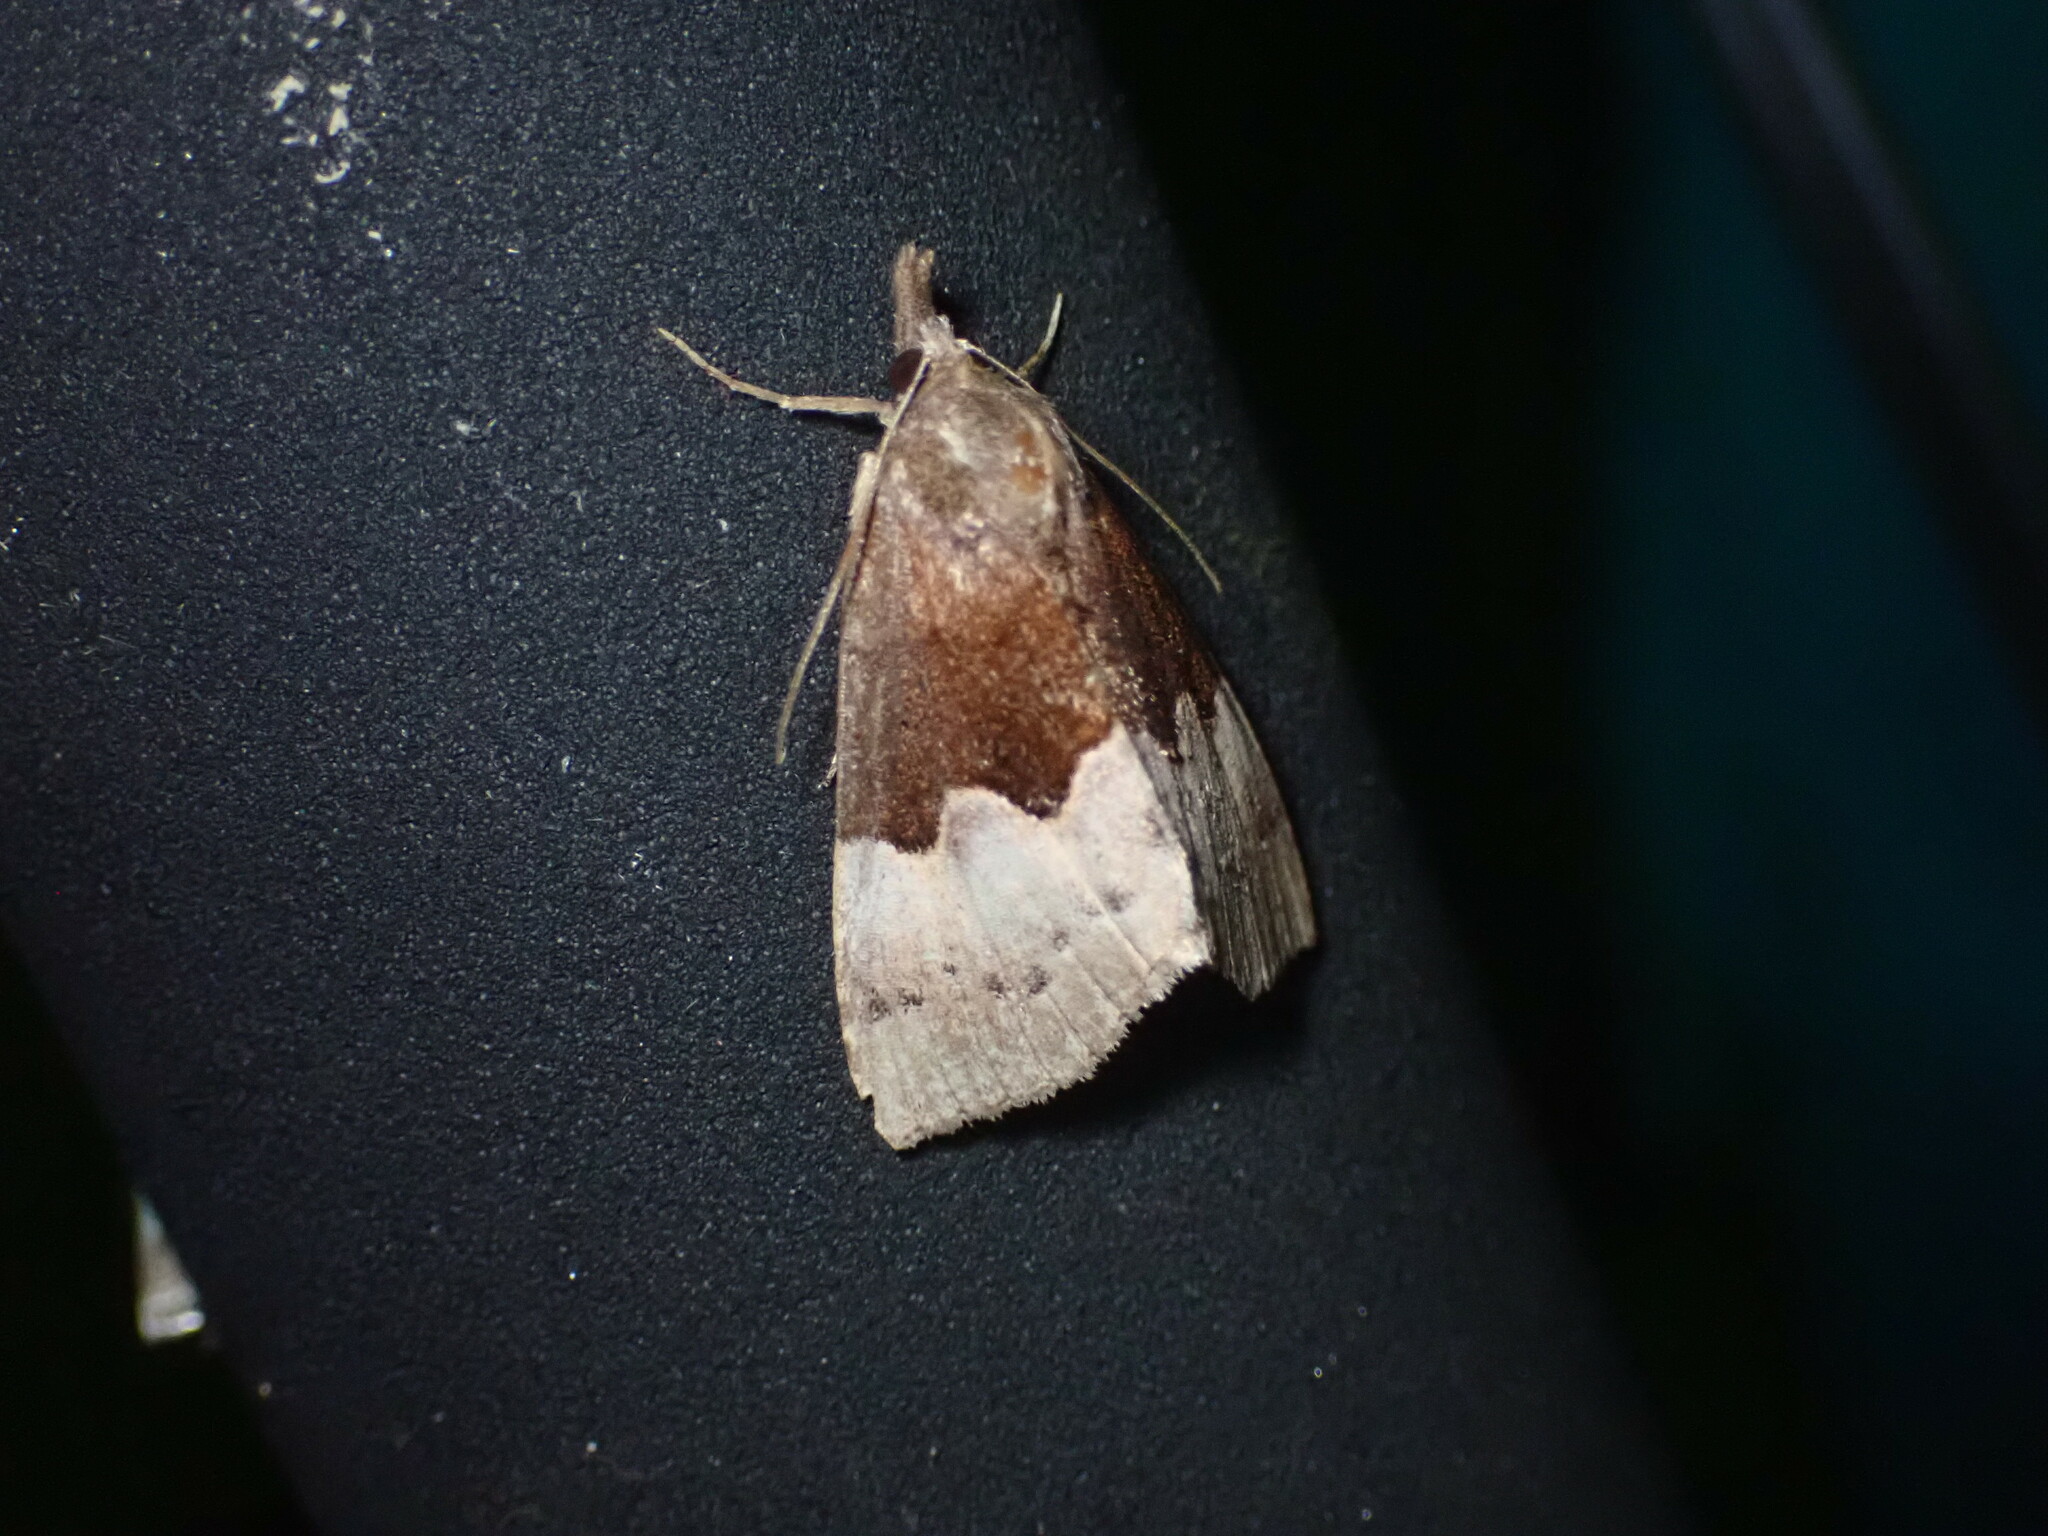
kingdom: Animalia
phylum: Arthropoda
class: Insecta
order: Lepidoptera
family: Erebidae
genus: Hypena
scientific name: Hypena appalachiensis
